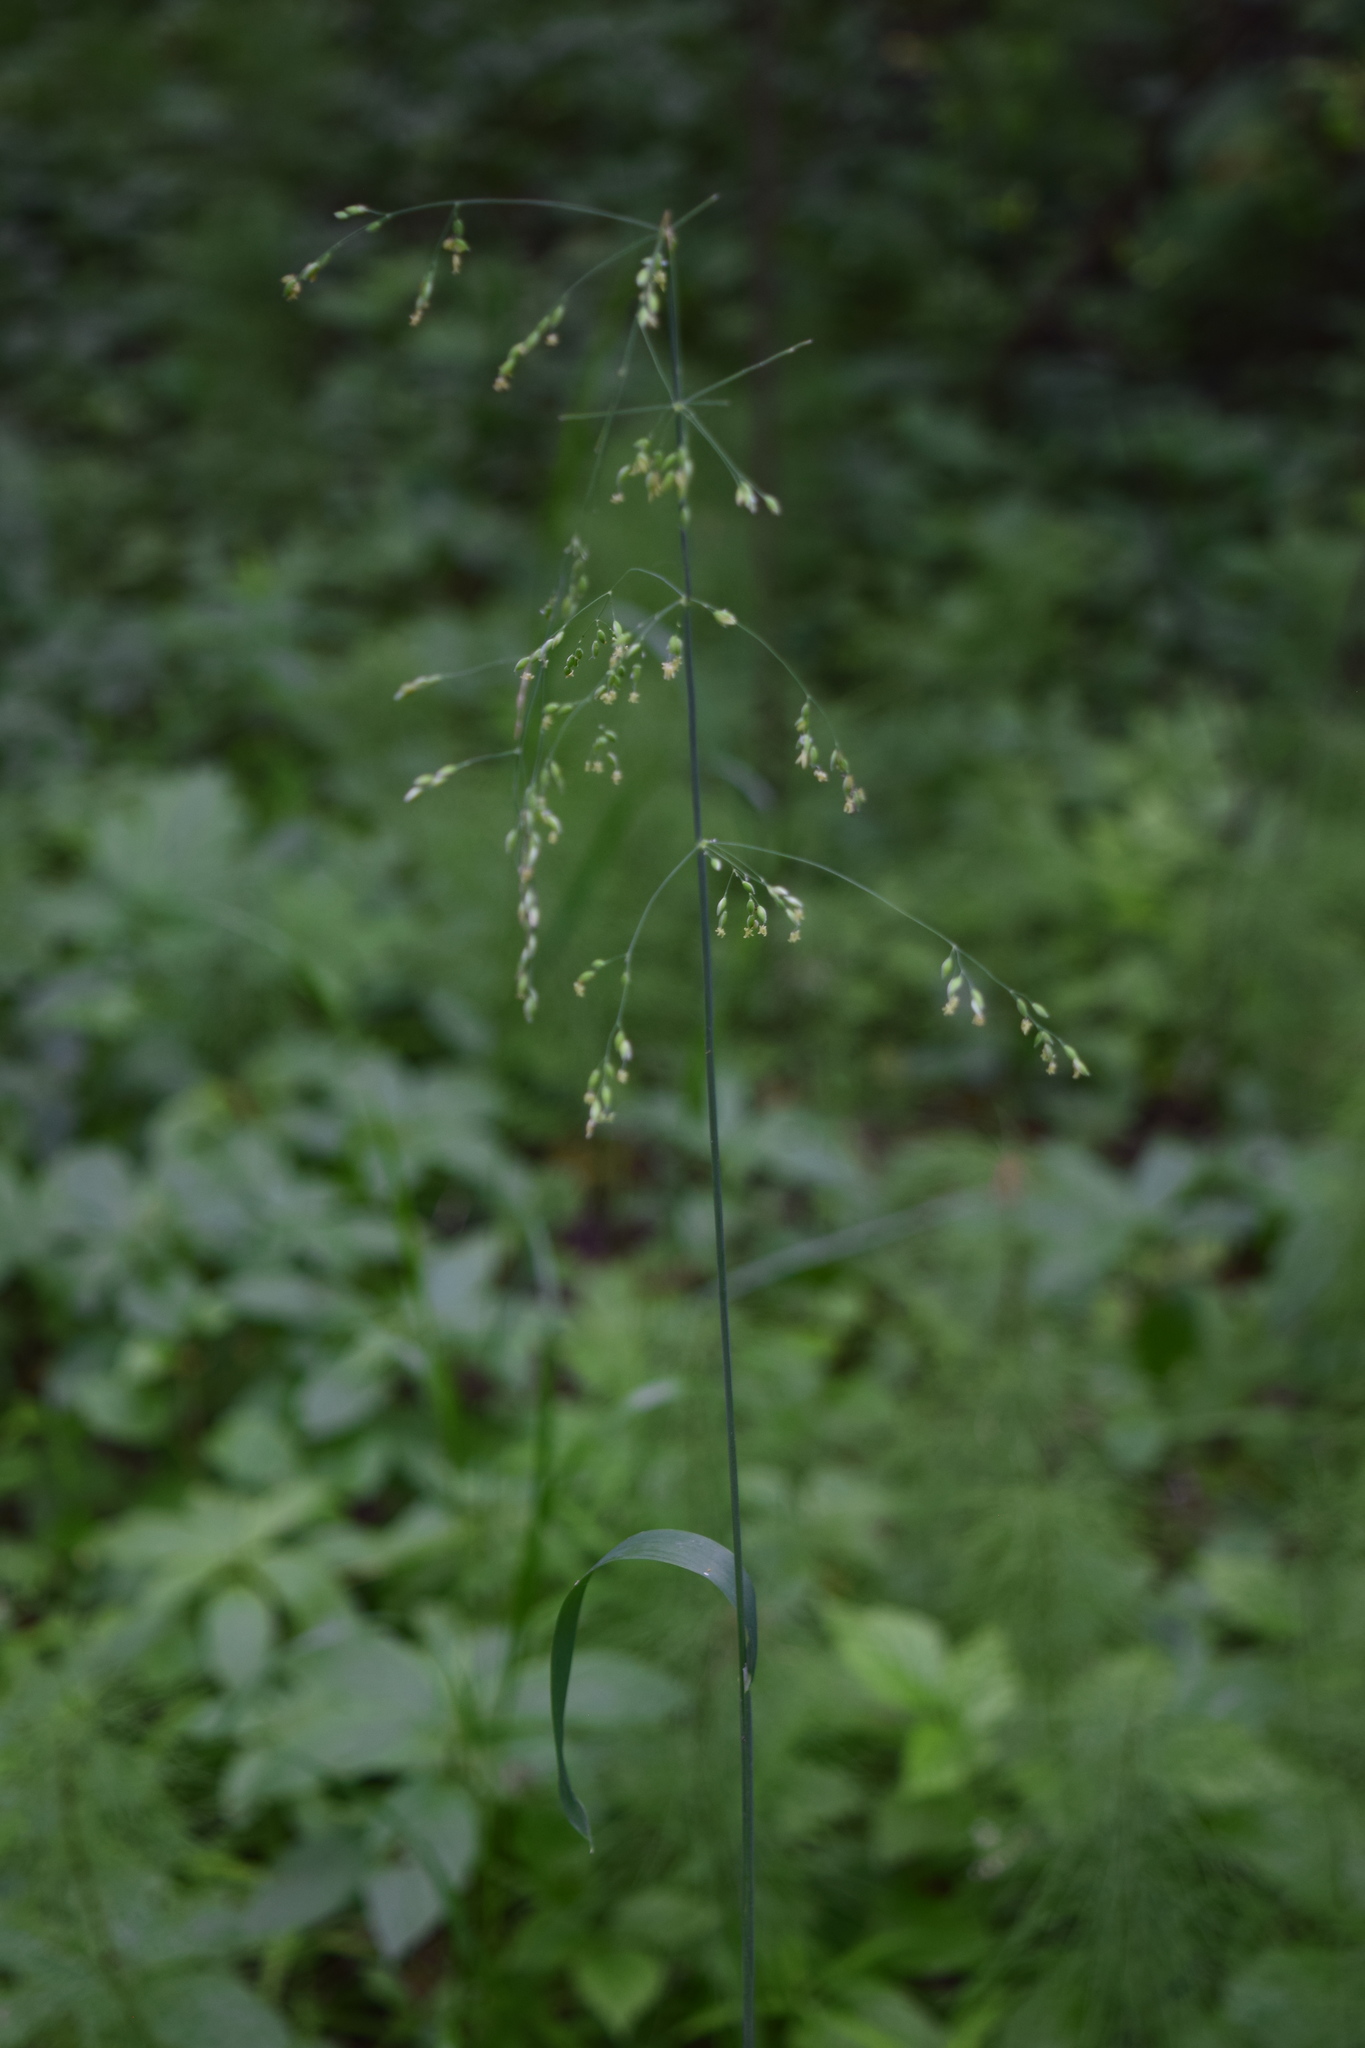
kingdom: Plantae
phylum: Tracheophyta
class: Liliopsida
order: Poales
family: Poaceae
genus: Milium
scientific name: Milium effusum
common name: Wood millet
